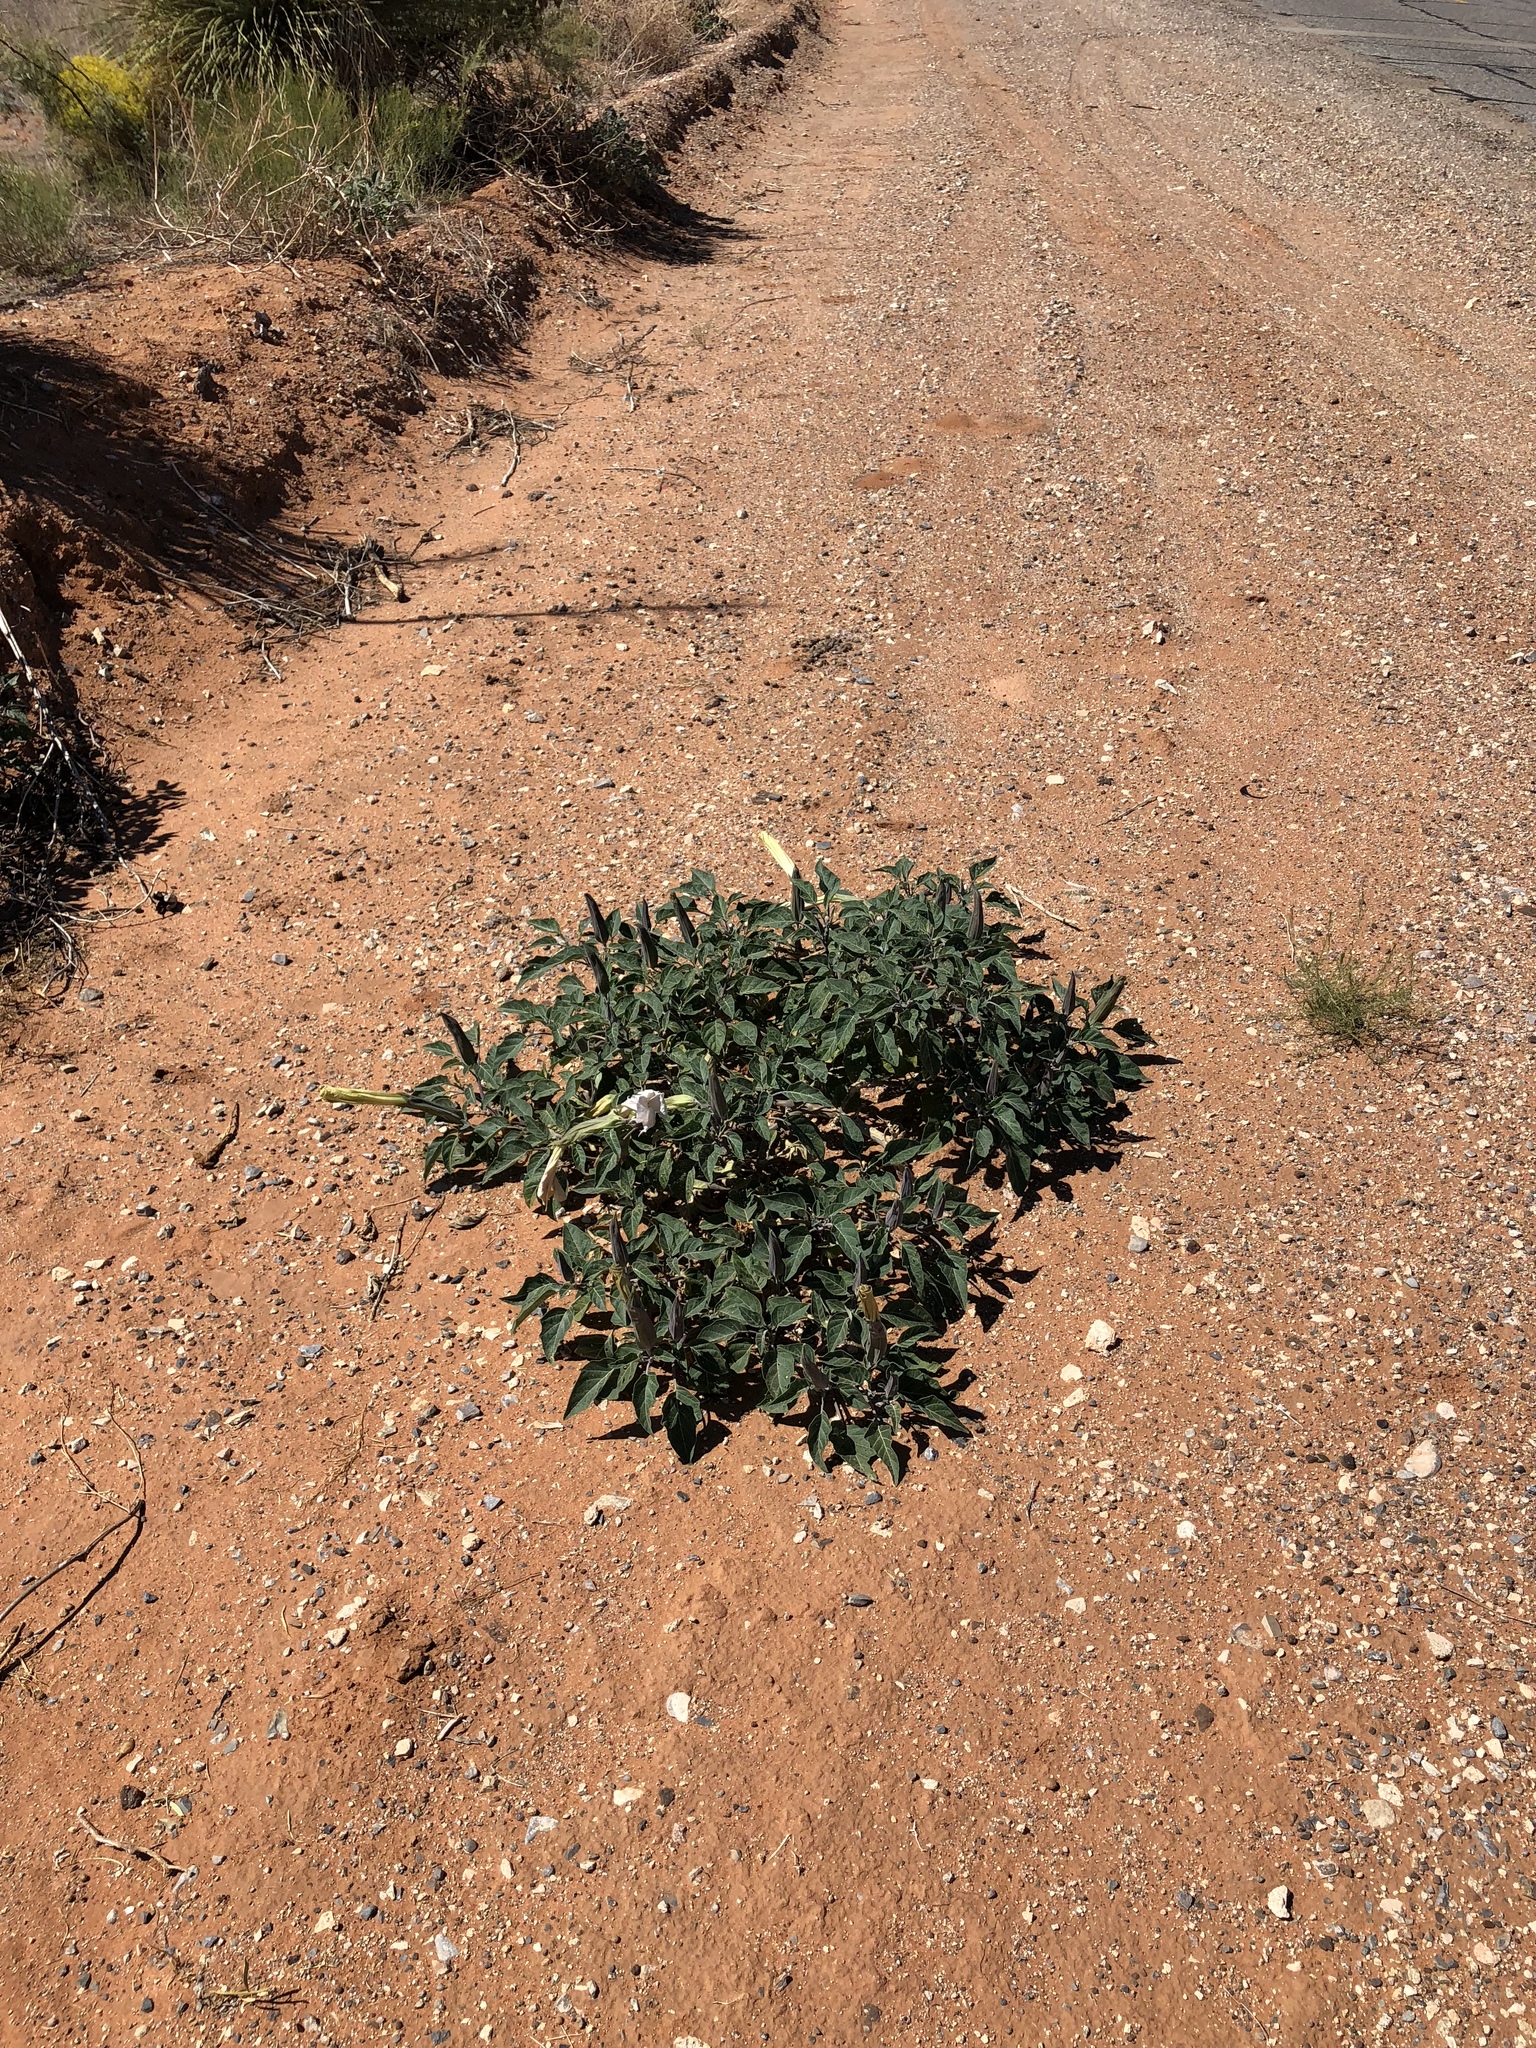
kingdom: Plantae
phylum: Tracheophyta
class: Magnoliopsida
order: Solanales
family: Solanaceae
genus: Datura
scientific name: Datura wrightii
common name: Sacred thorn-apple
